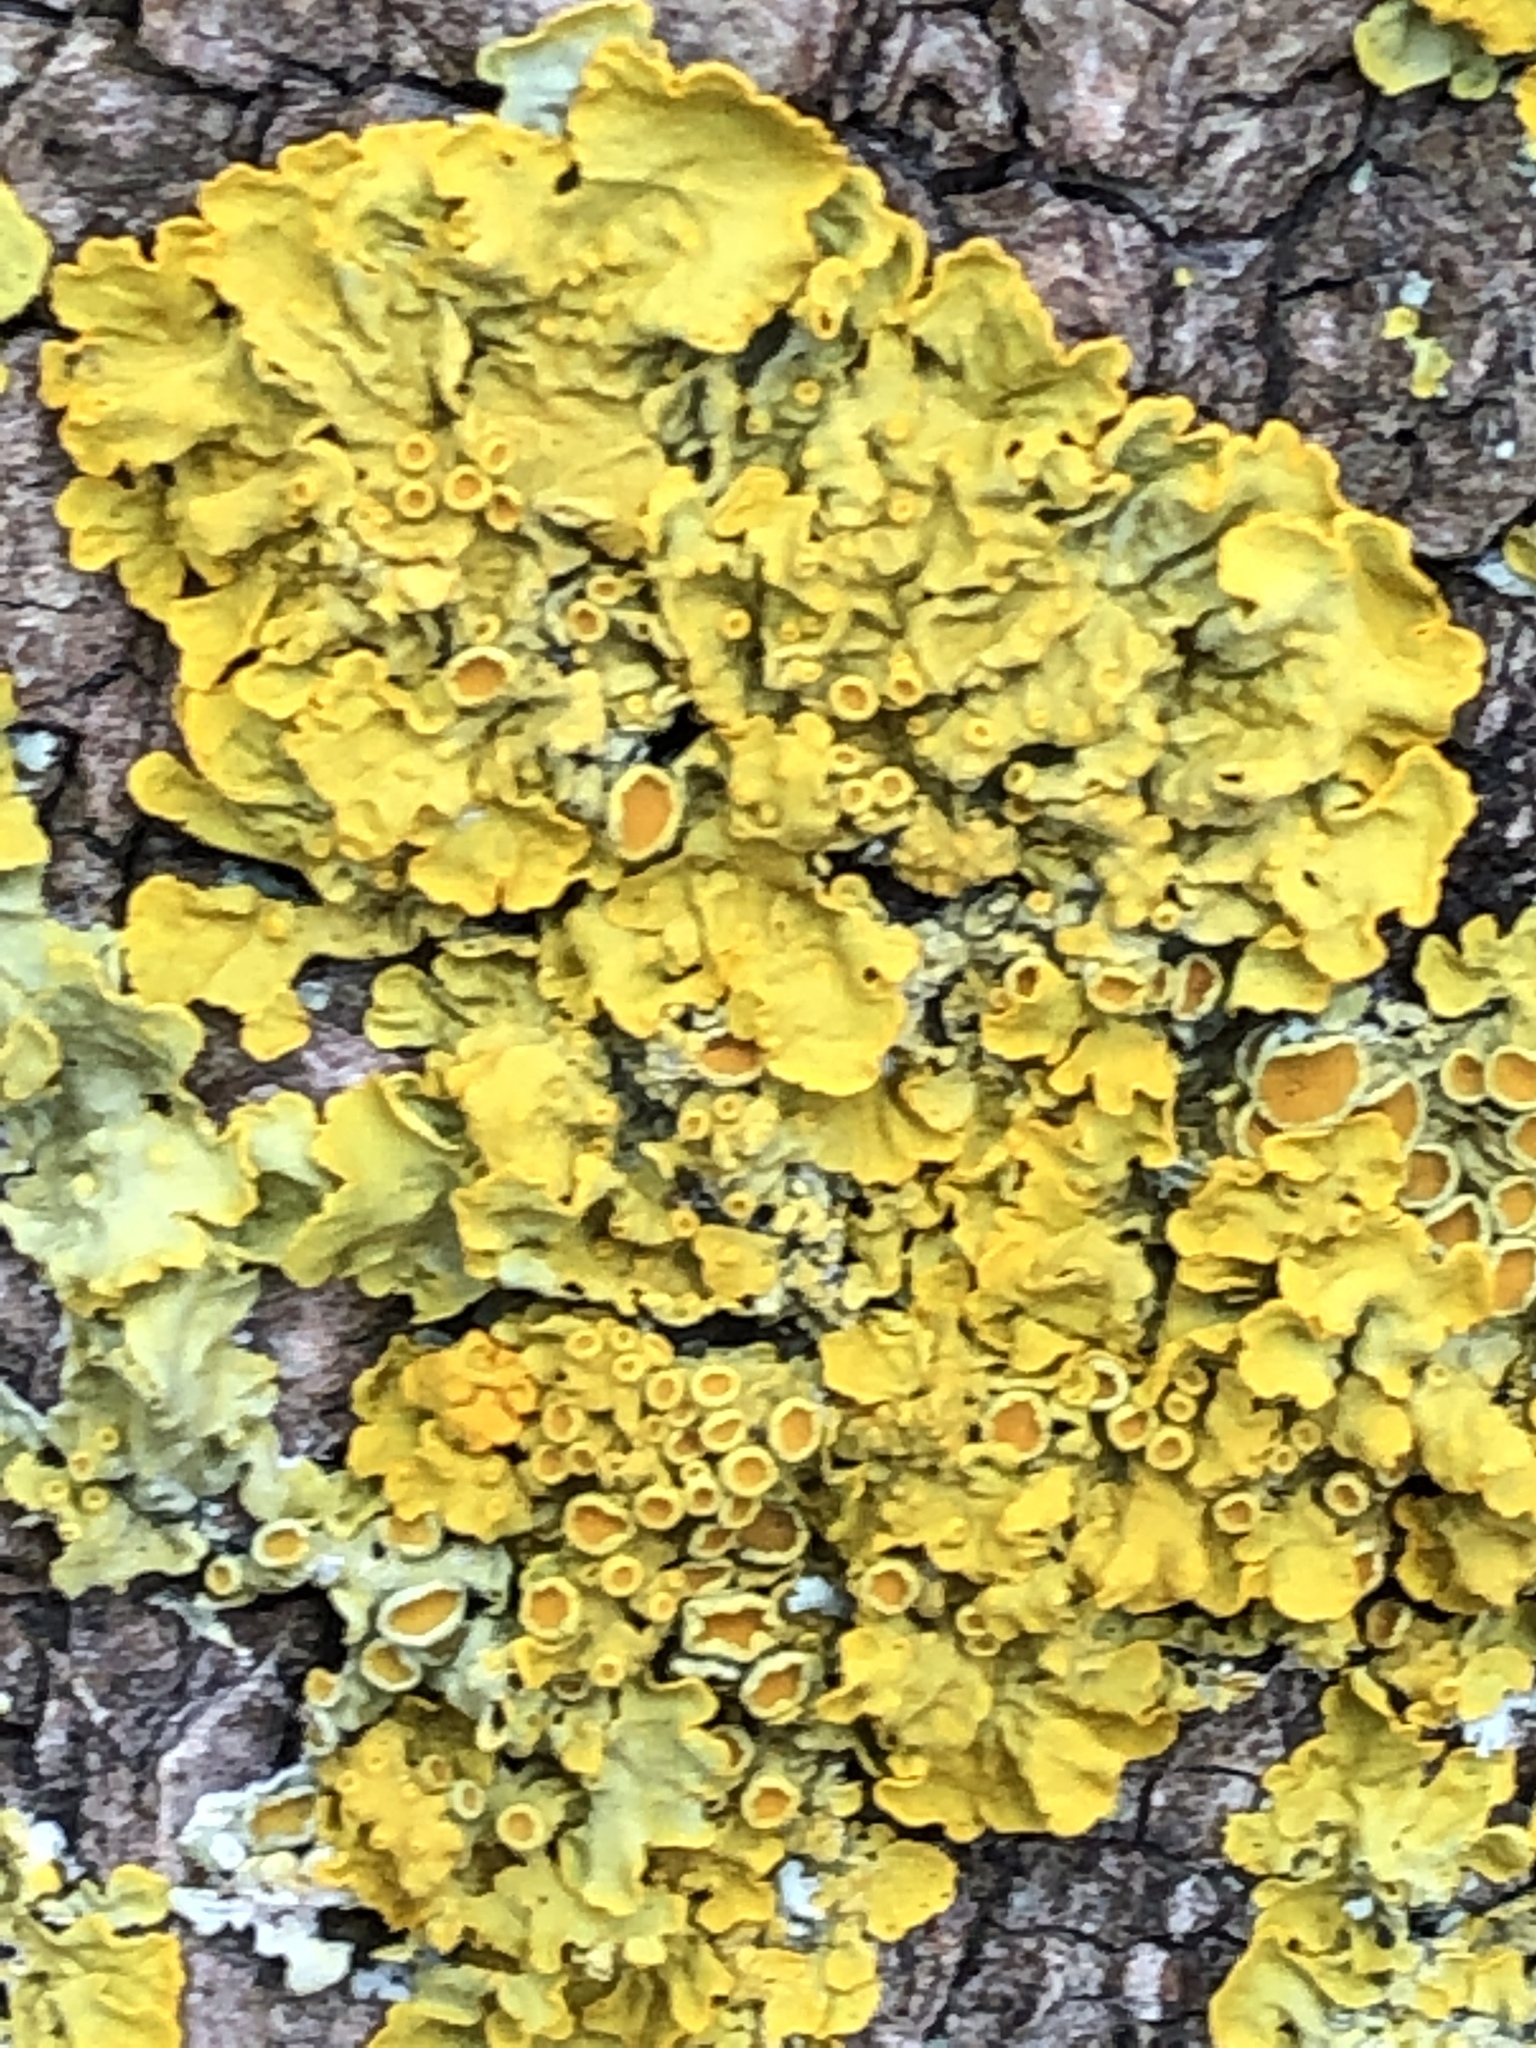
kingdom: Fungi
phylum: Ascomycota
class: Lecanoromycetes
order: Teloschistales
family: Teloschistaceae
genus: Xanthoria
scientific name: Xanthoria parietina
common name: Common orange lichen
